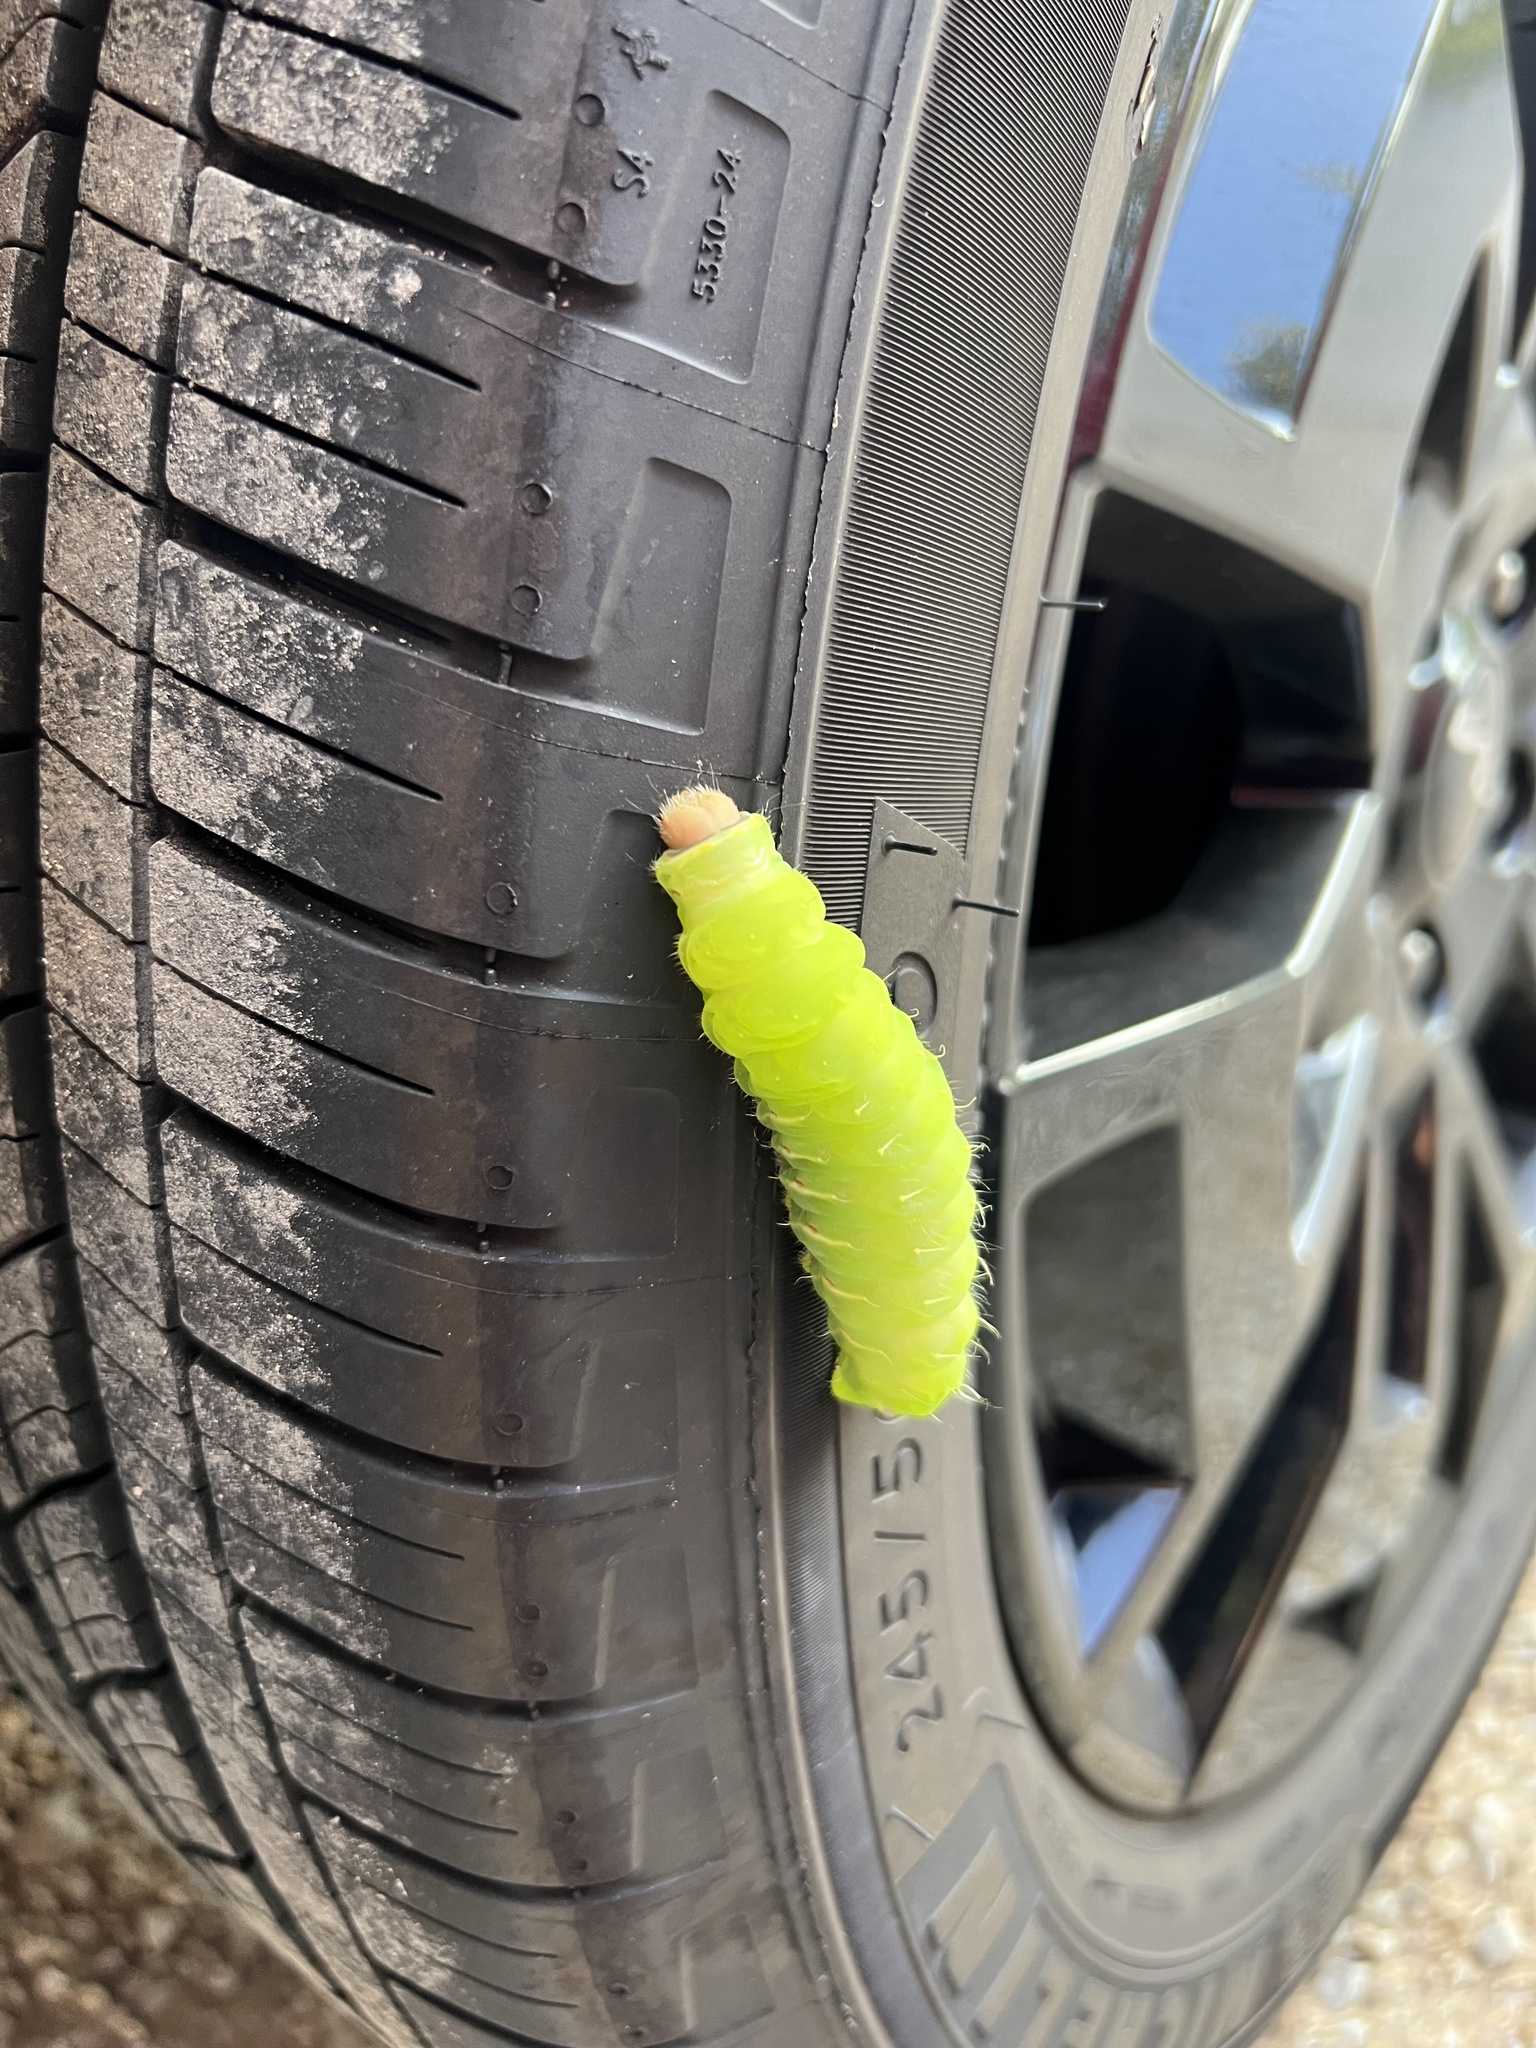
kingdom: Animalia
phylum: Arthropoda
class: Insecta
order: Lepidoptera
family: Saturniidae
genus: Antheraea
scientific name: Antheraea polyphemus
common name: Polyphemus moth
